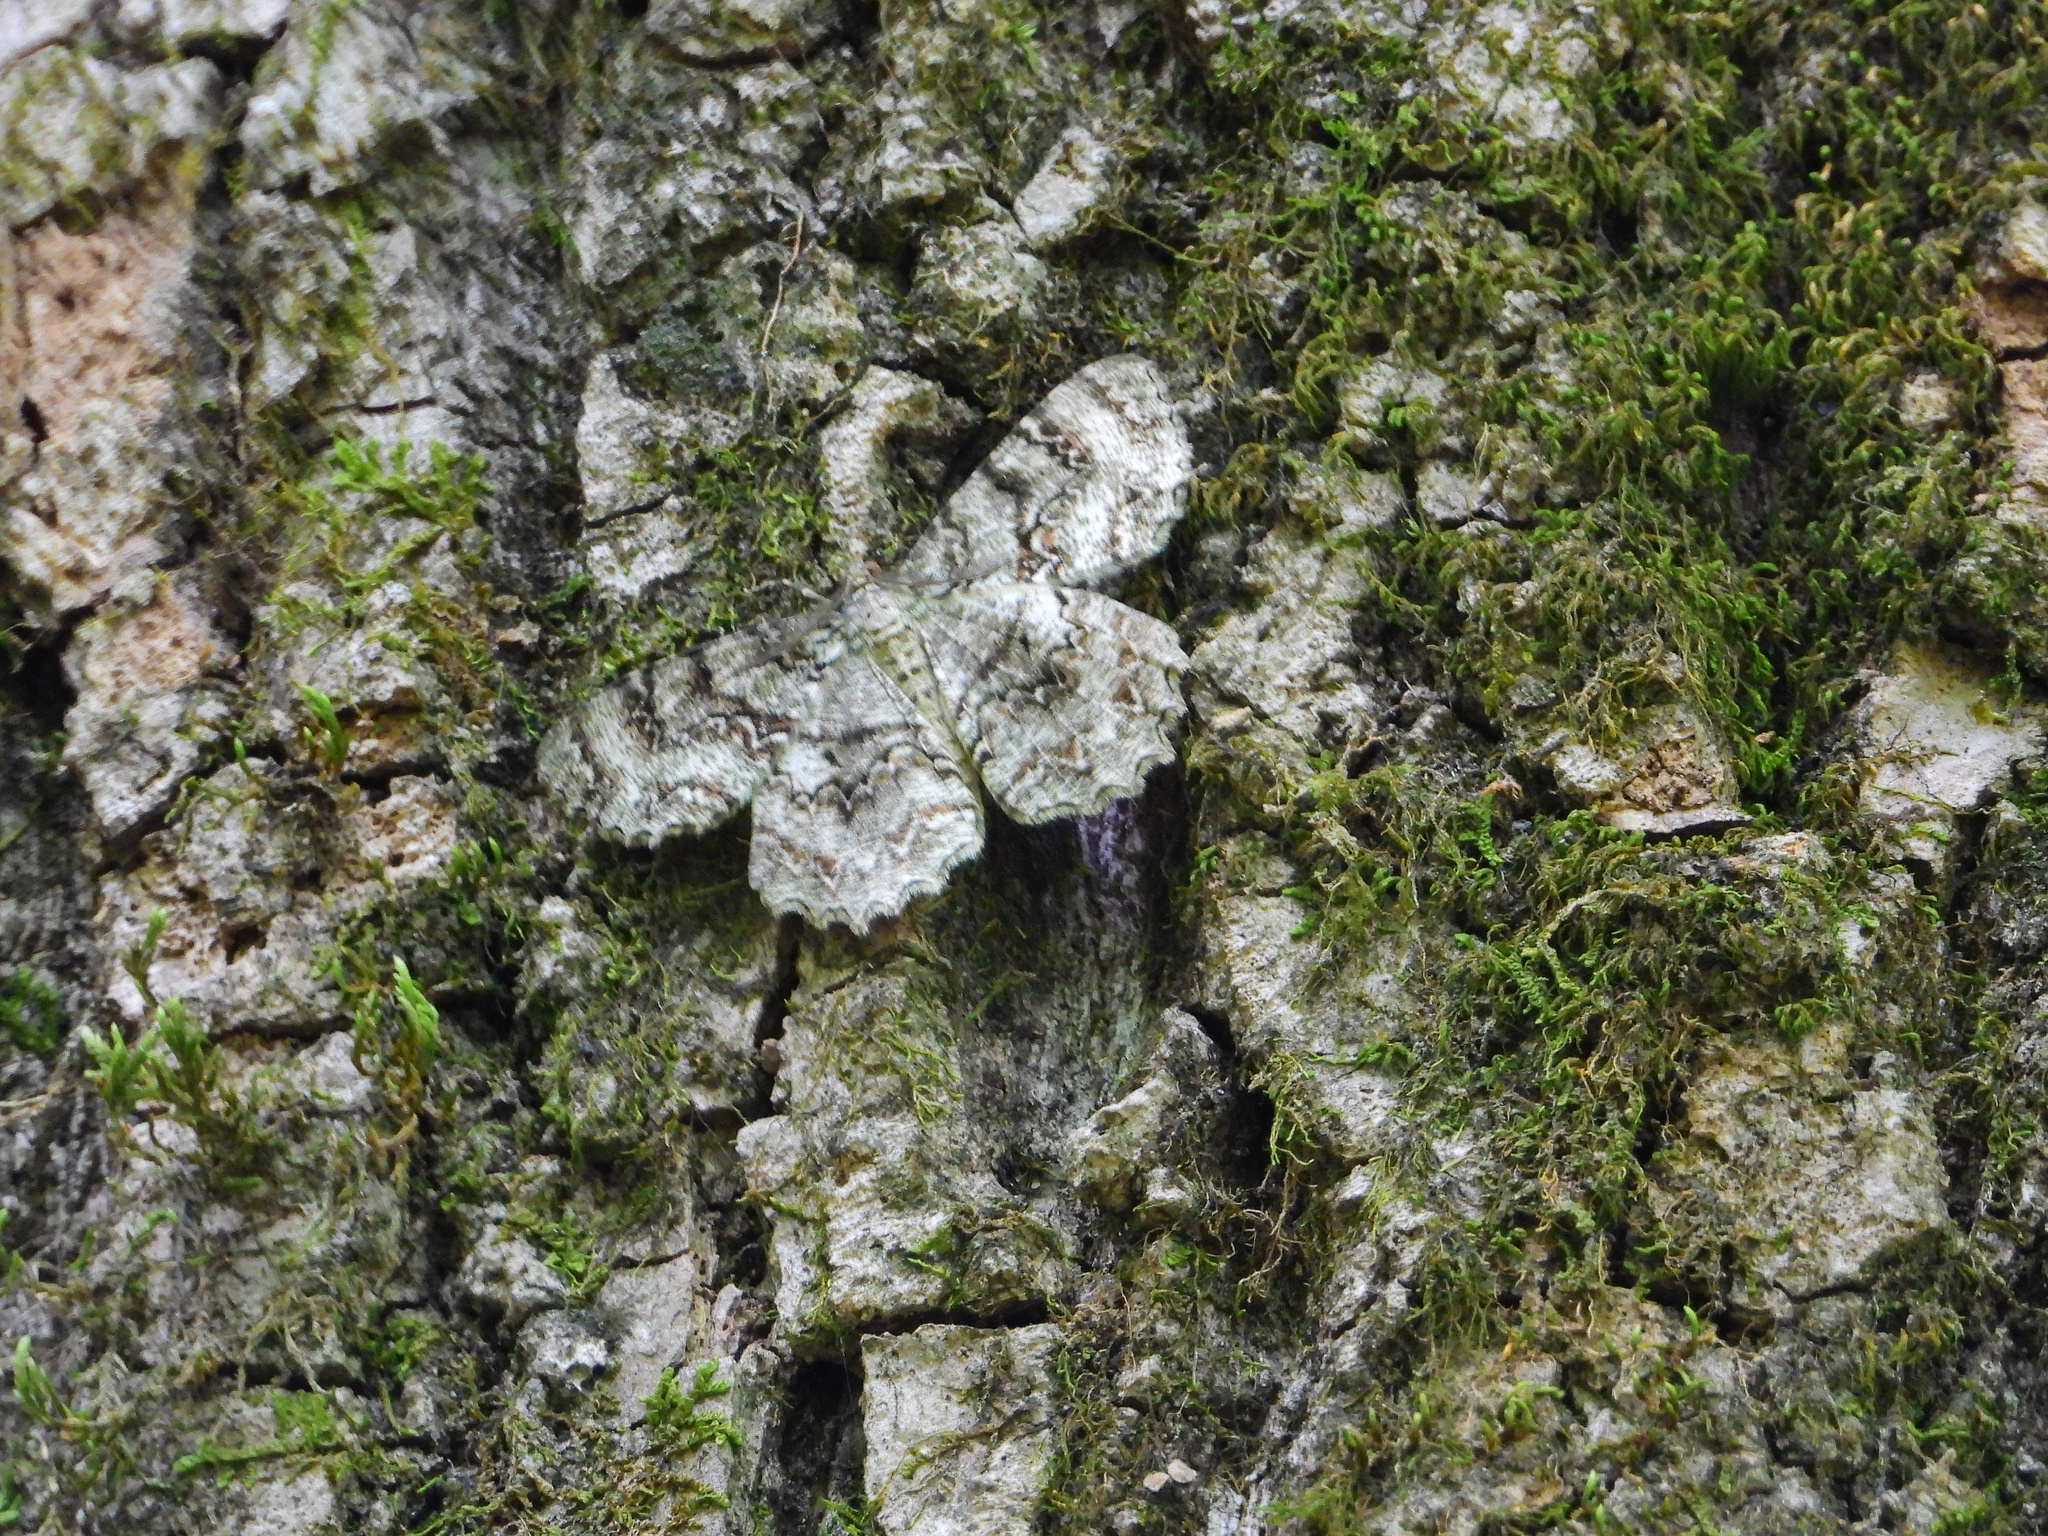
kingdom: Animalia
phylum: Arthropoda
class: Insecta
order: Lepidoptera
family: Geometridae
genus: Epimecis
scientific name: Epimecis hortaria
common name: Tulip-tree beauty
